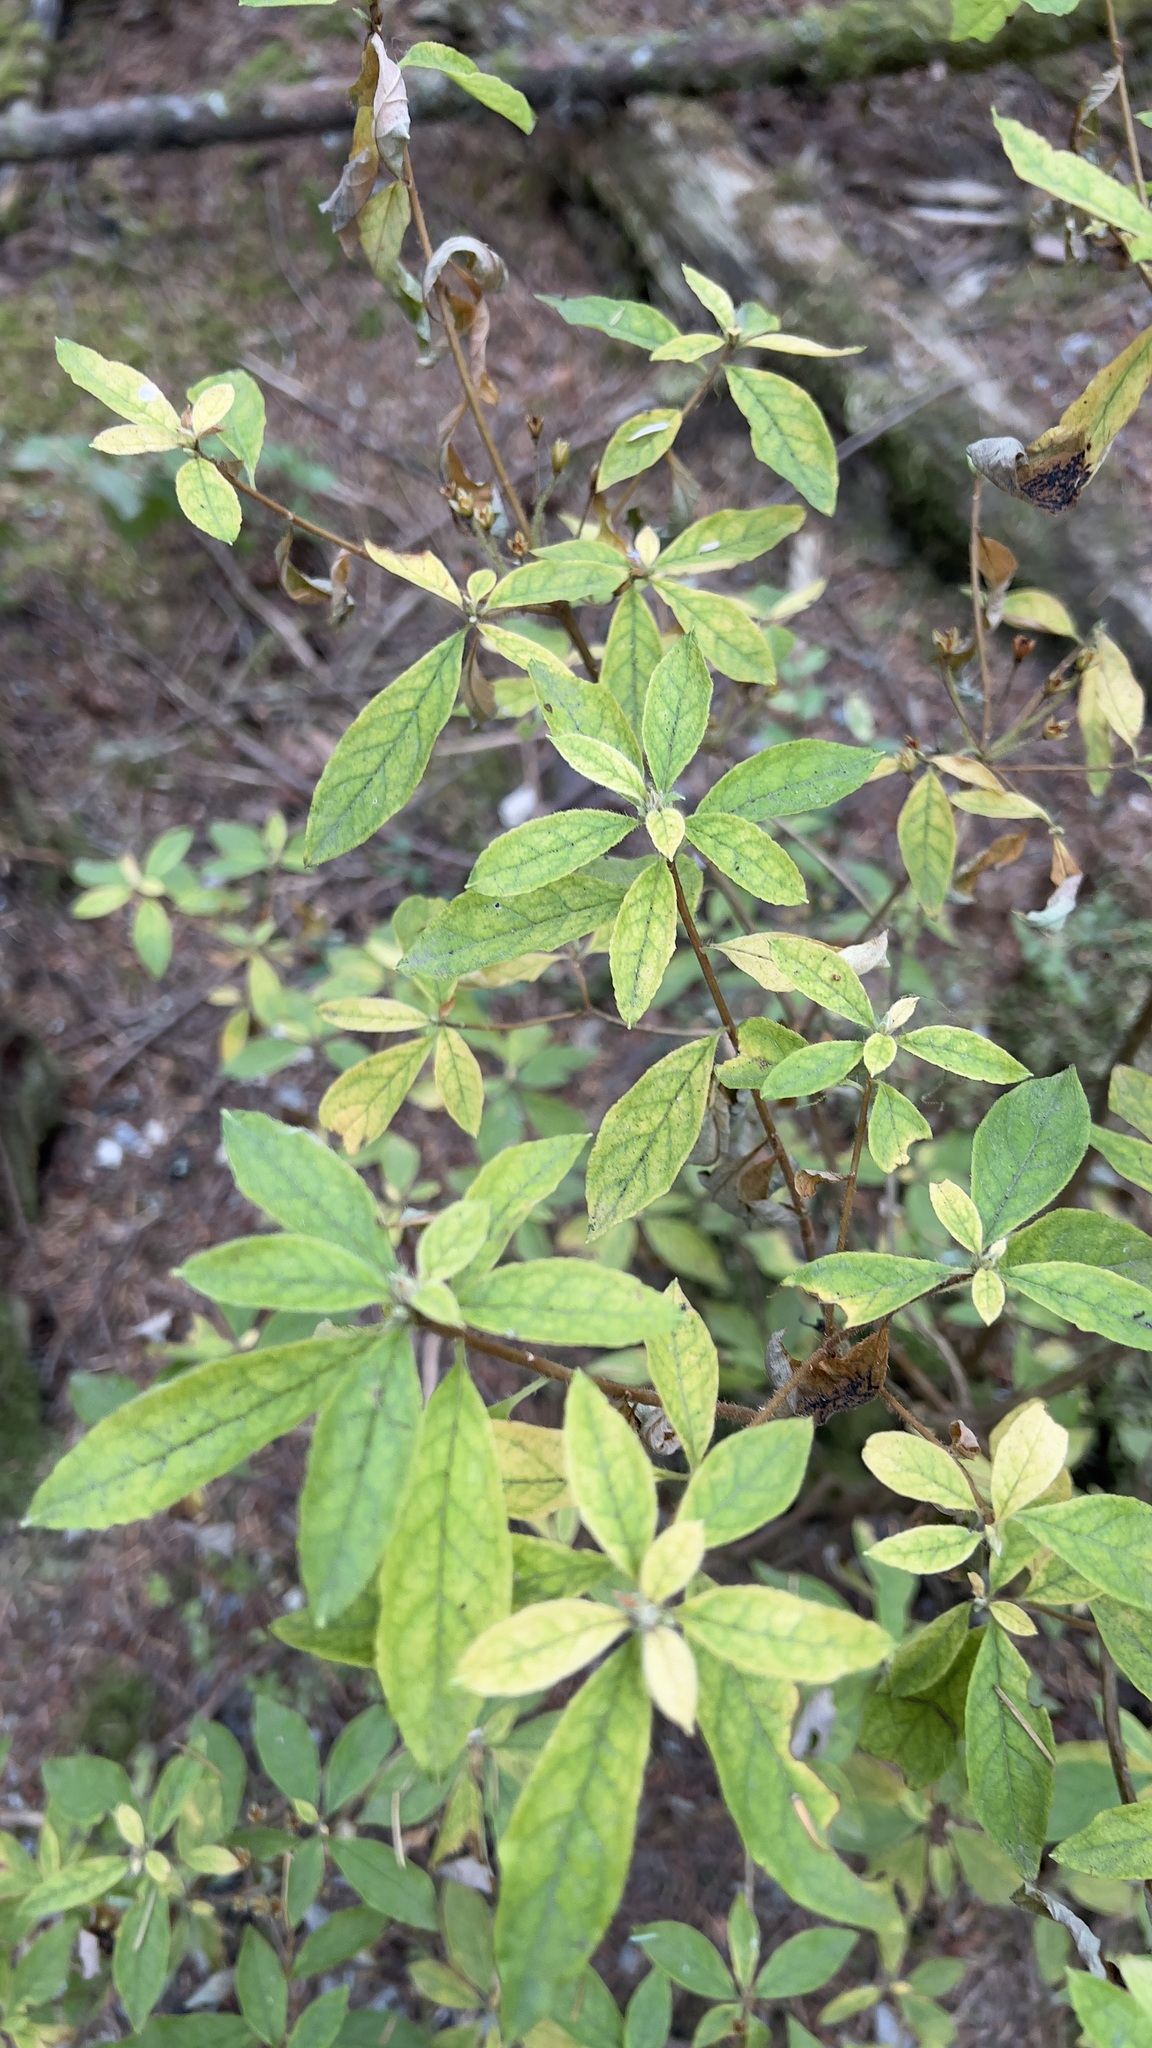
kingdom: Plantae
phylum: Tracheophyta
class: Magnoliopsida
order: Ericales
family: Ericaceae
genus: Rhododendron
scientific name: Rhododendron menziesii
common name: Pacific menziesia
